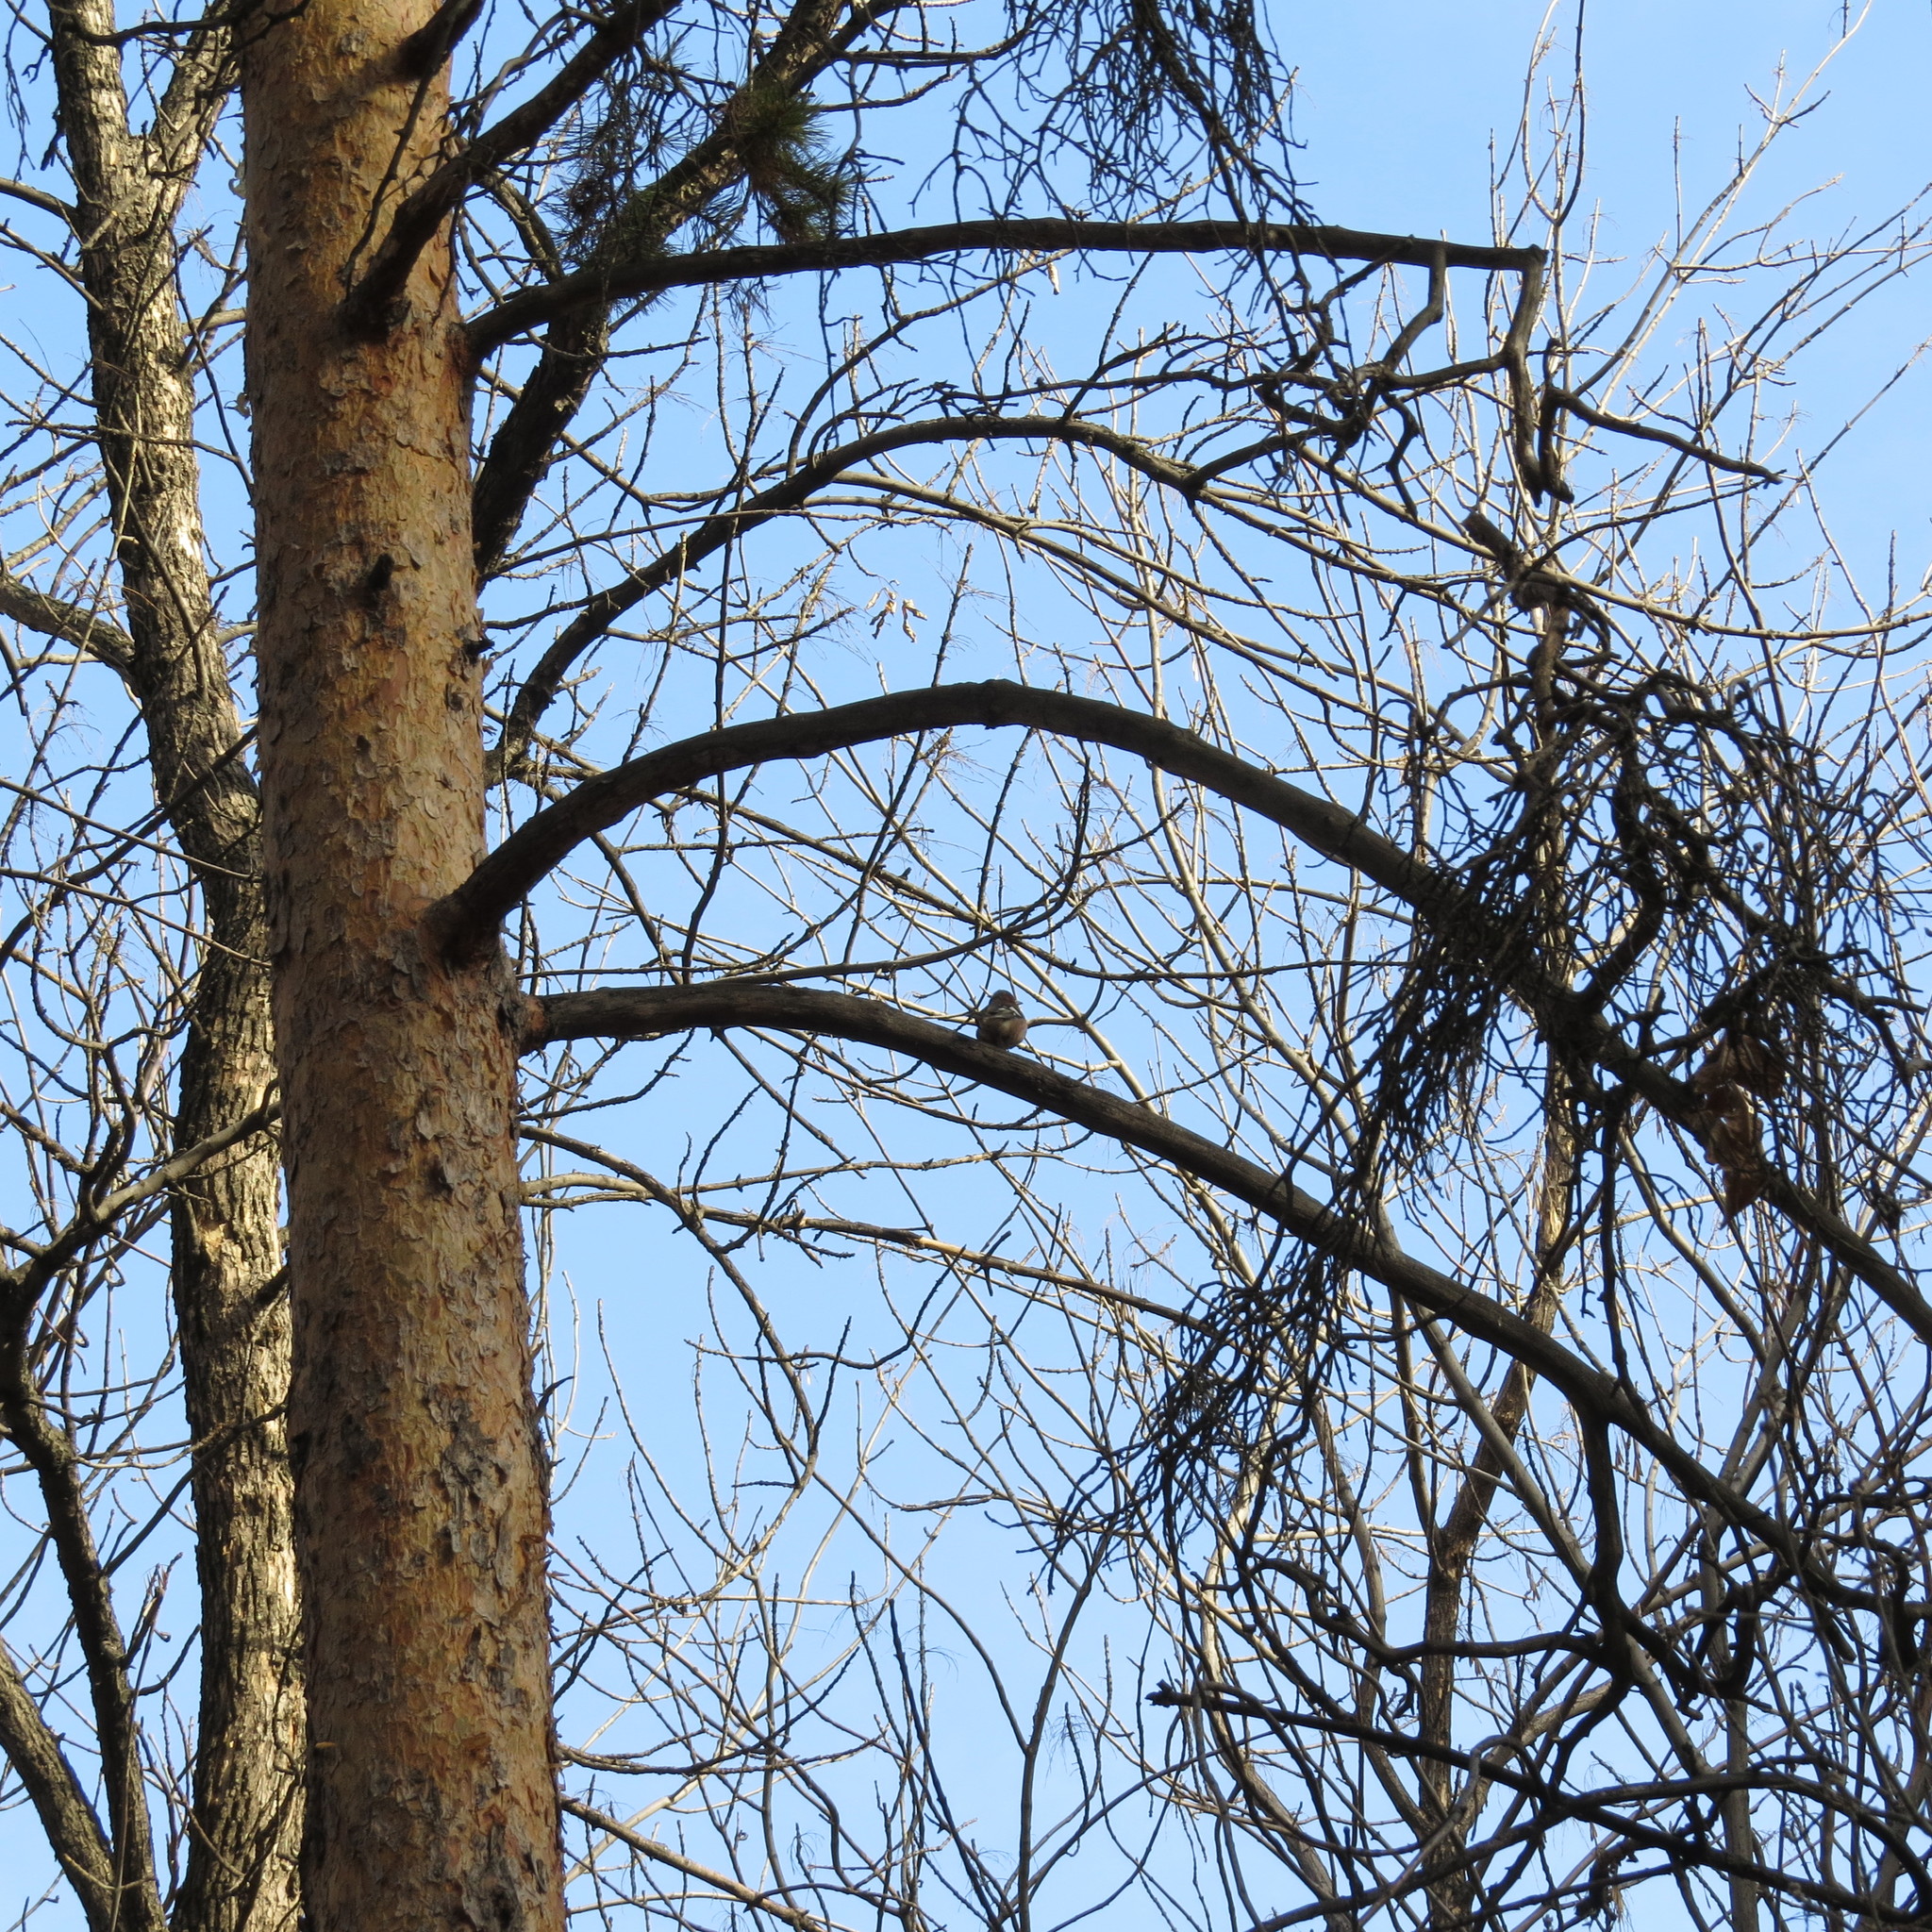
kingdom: Animalia
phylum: Chordata
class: Aves
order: Passeriformes
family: Fringillidae
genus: Fringilla
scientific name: Fringilla coelebs
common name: Common chaffinch
